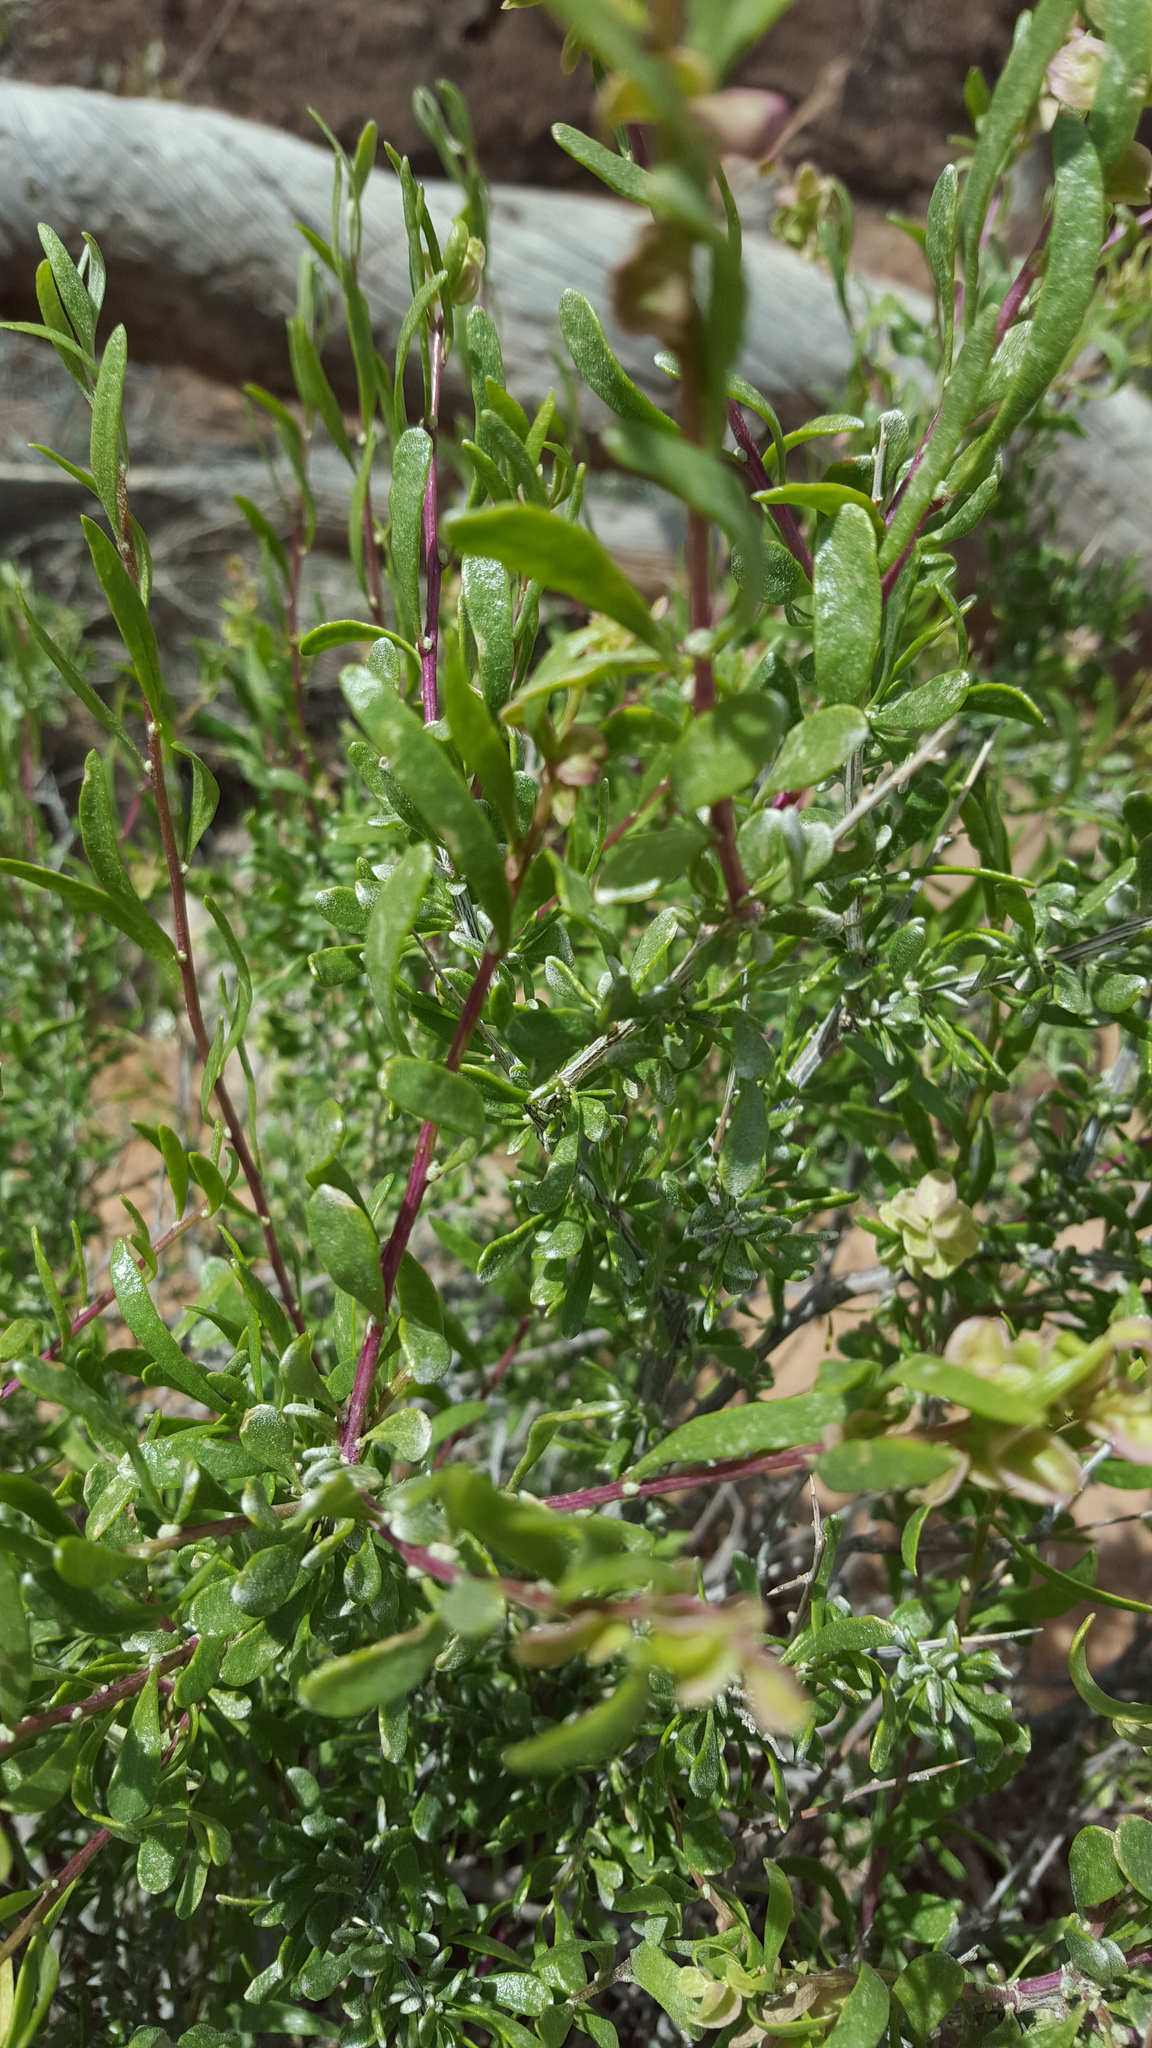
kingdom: Plantae
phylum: Tracheophyta
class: Magnoliopsida
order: Caryophyllales
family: Amaranthaceae
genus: Grayia
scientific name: Grayia spinosa
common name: Spiny hopsage
